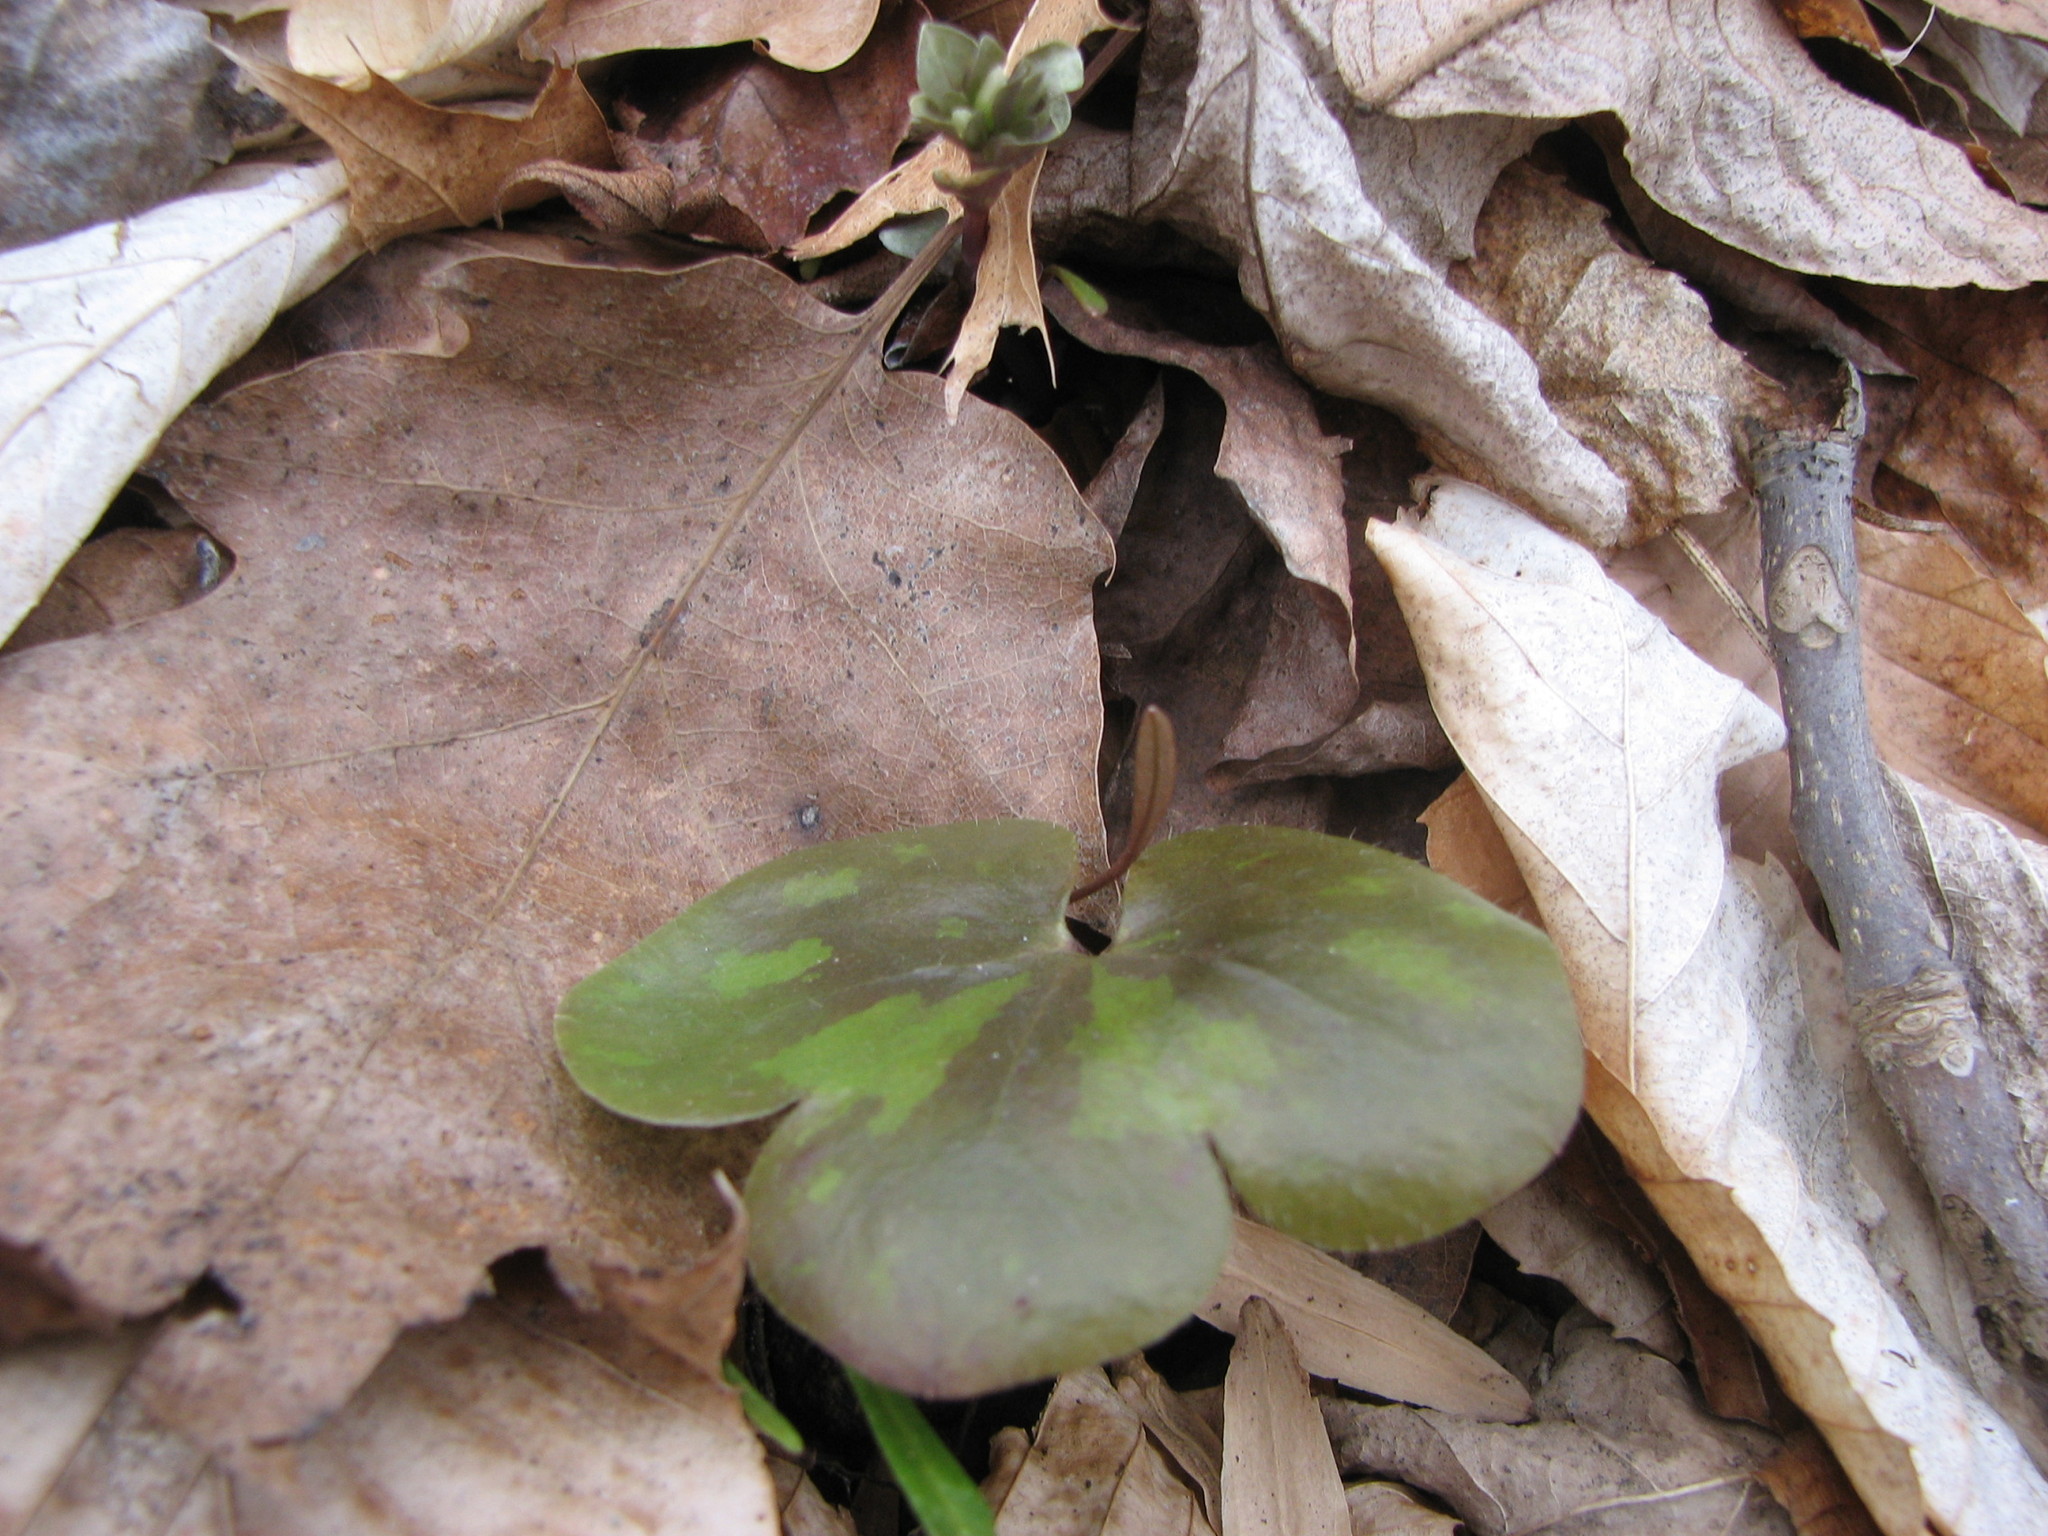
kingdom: Plantae
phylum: Tracheophyta
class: Magnoliopsida
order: Ranunculales
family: Ranunculaceae
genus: Hepatica
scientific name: Hepatica americana
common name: American hepatica
